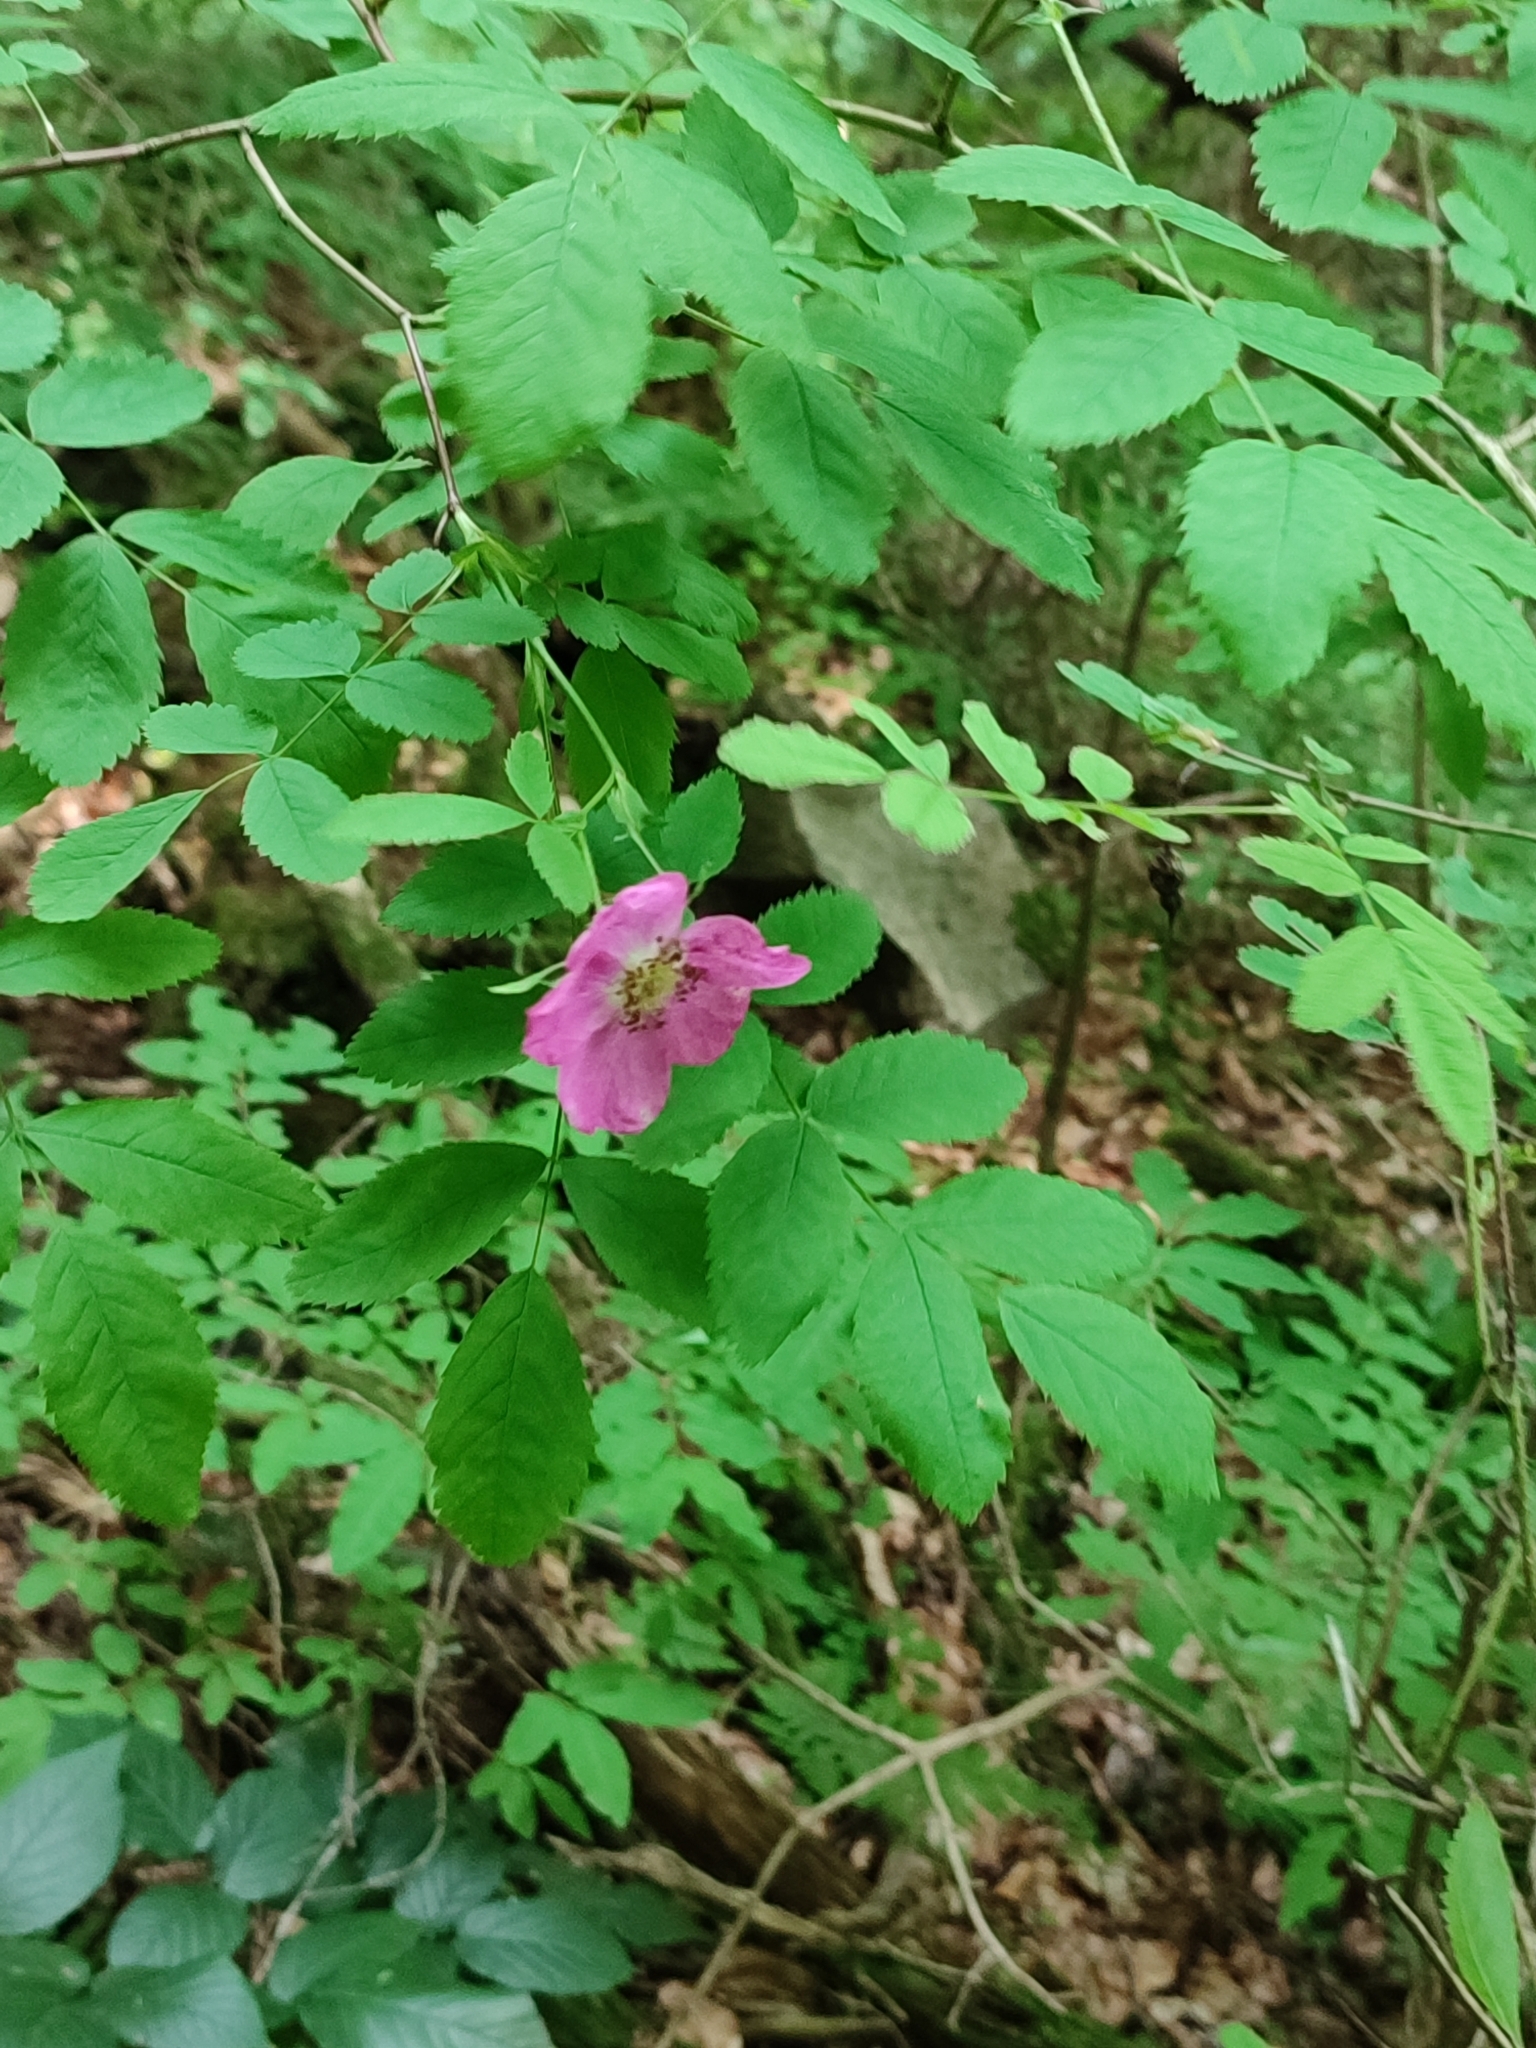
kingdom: Plantae
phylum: Tracheophyta
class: Magnoliopsida
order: Rosales
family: Rosaceae
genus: Rosa
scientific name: Rosa pendulina
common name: Alpine rose
